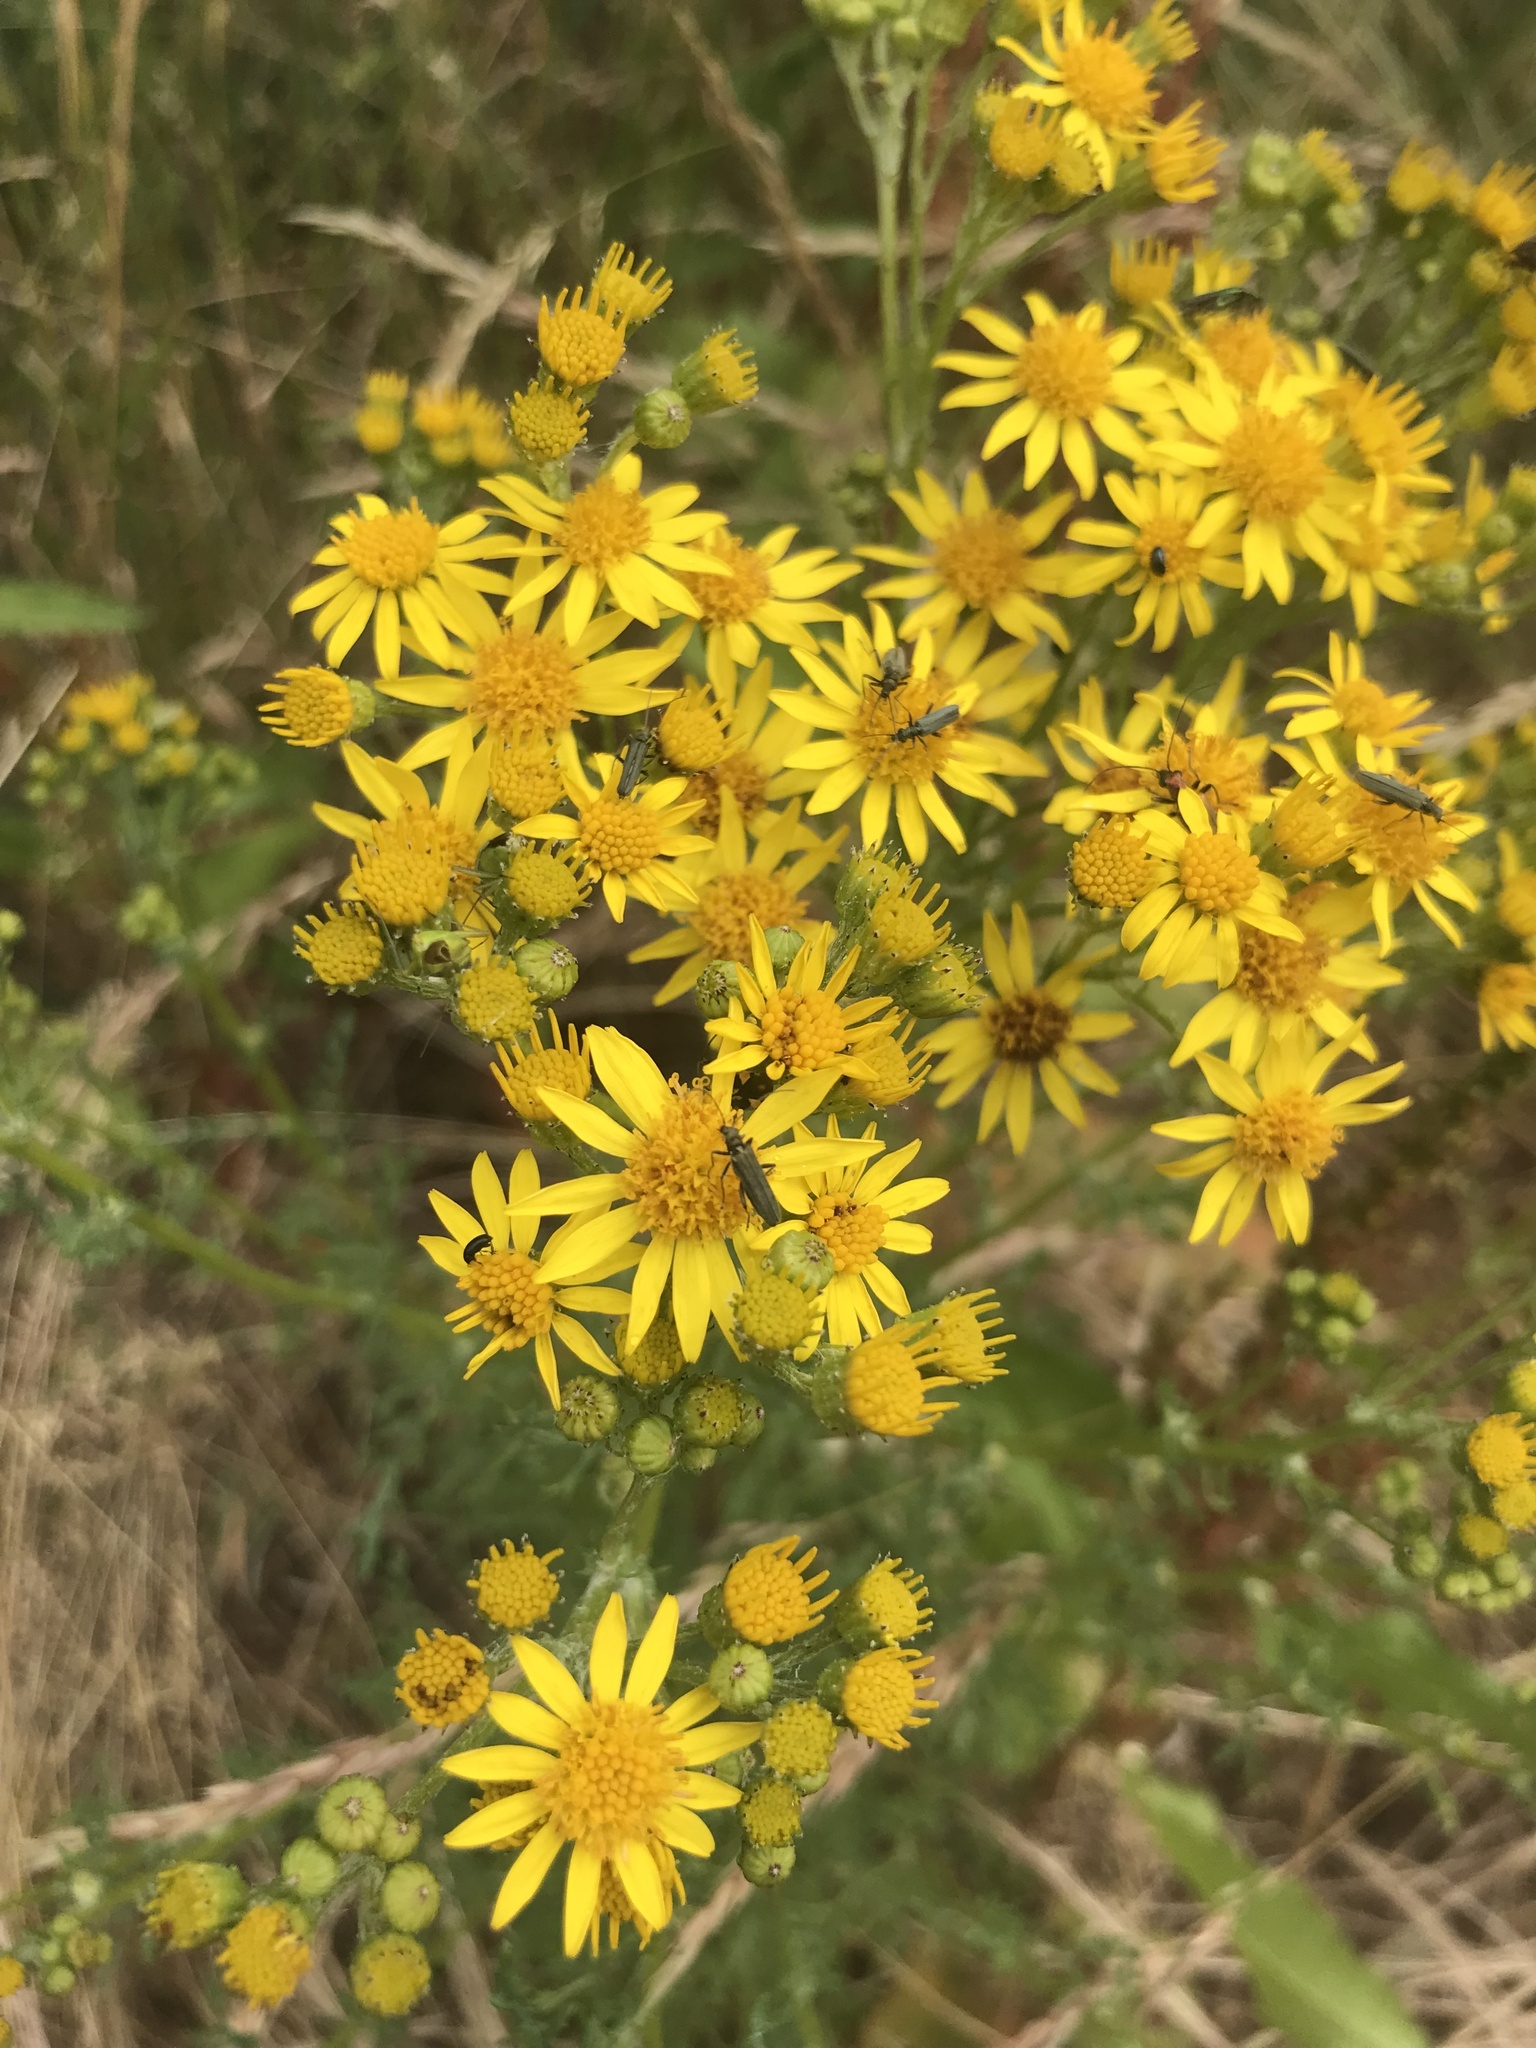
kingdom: Plantae
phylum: Tracheophyta
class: Magnoliopsida
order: Asterales
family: Asteraceae
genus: Jacobaea
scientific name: Jacobaea vulgaris
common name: Stinking willie
